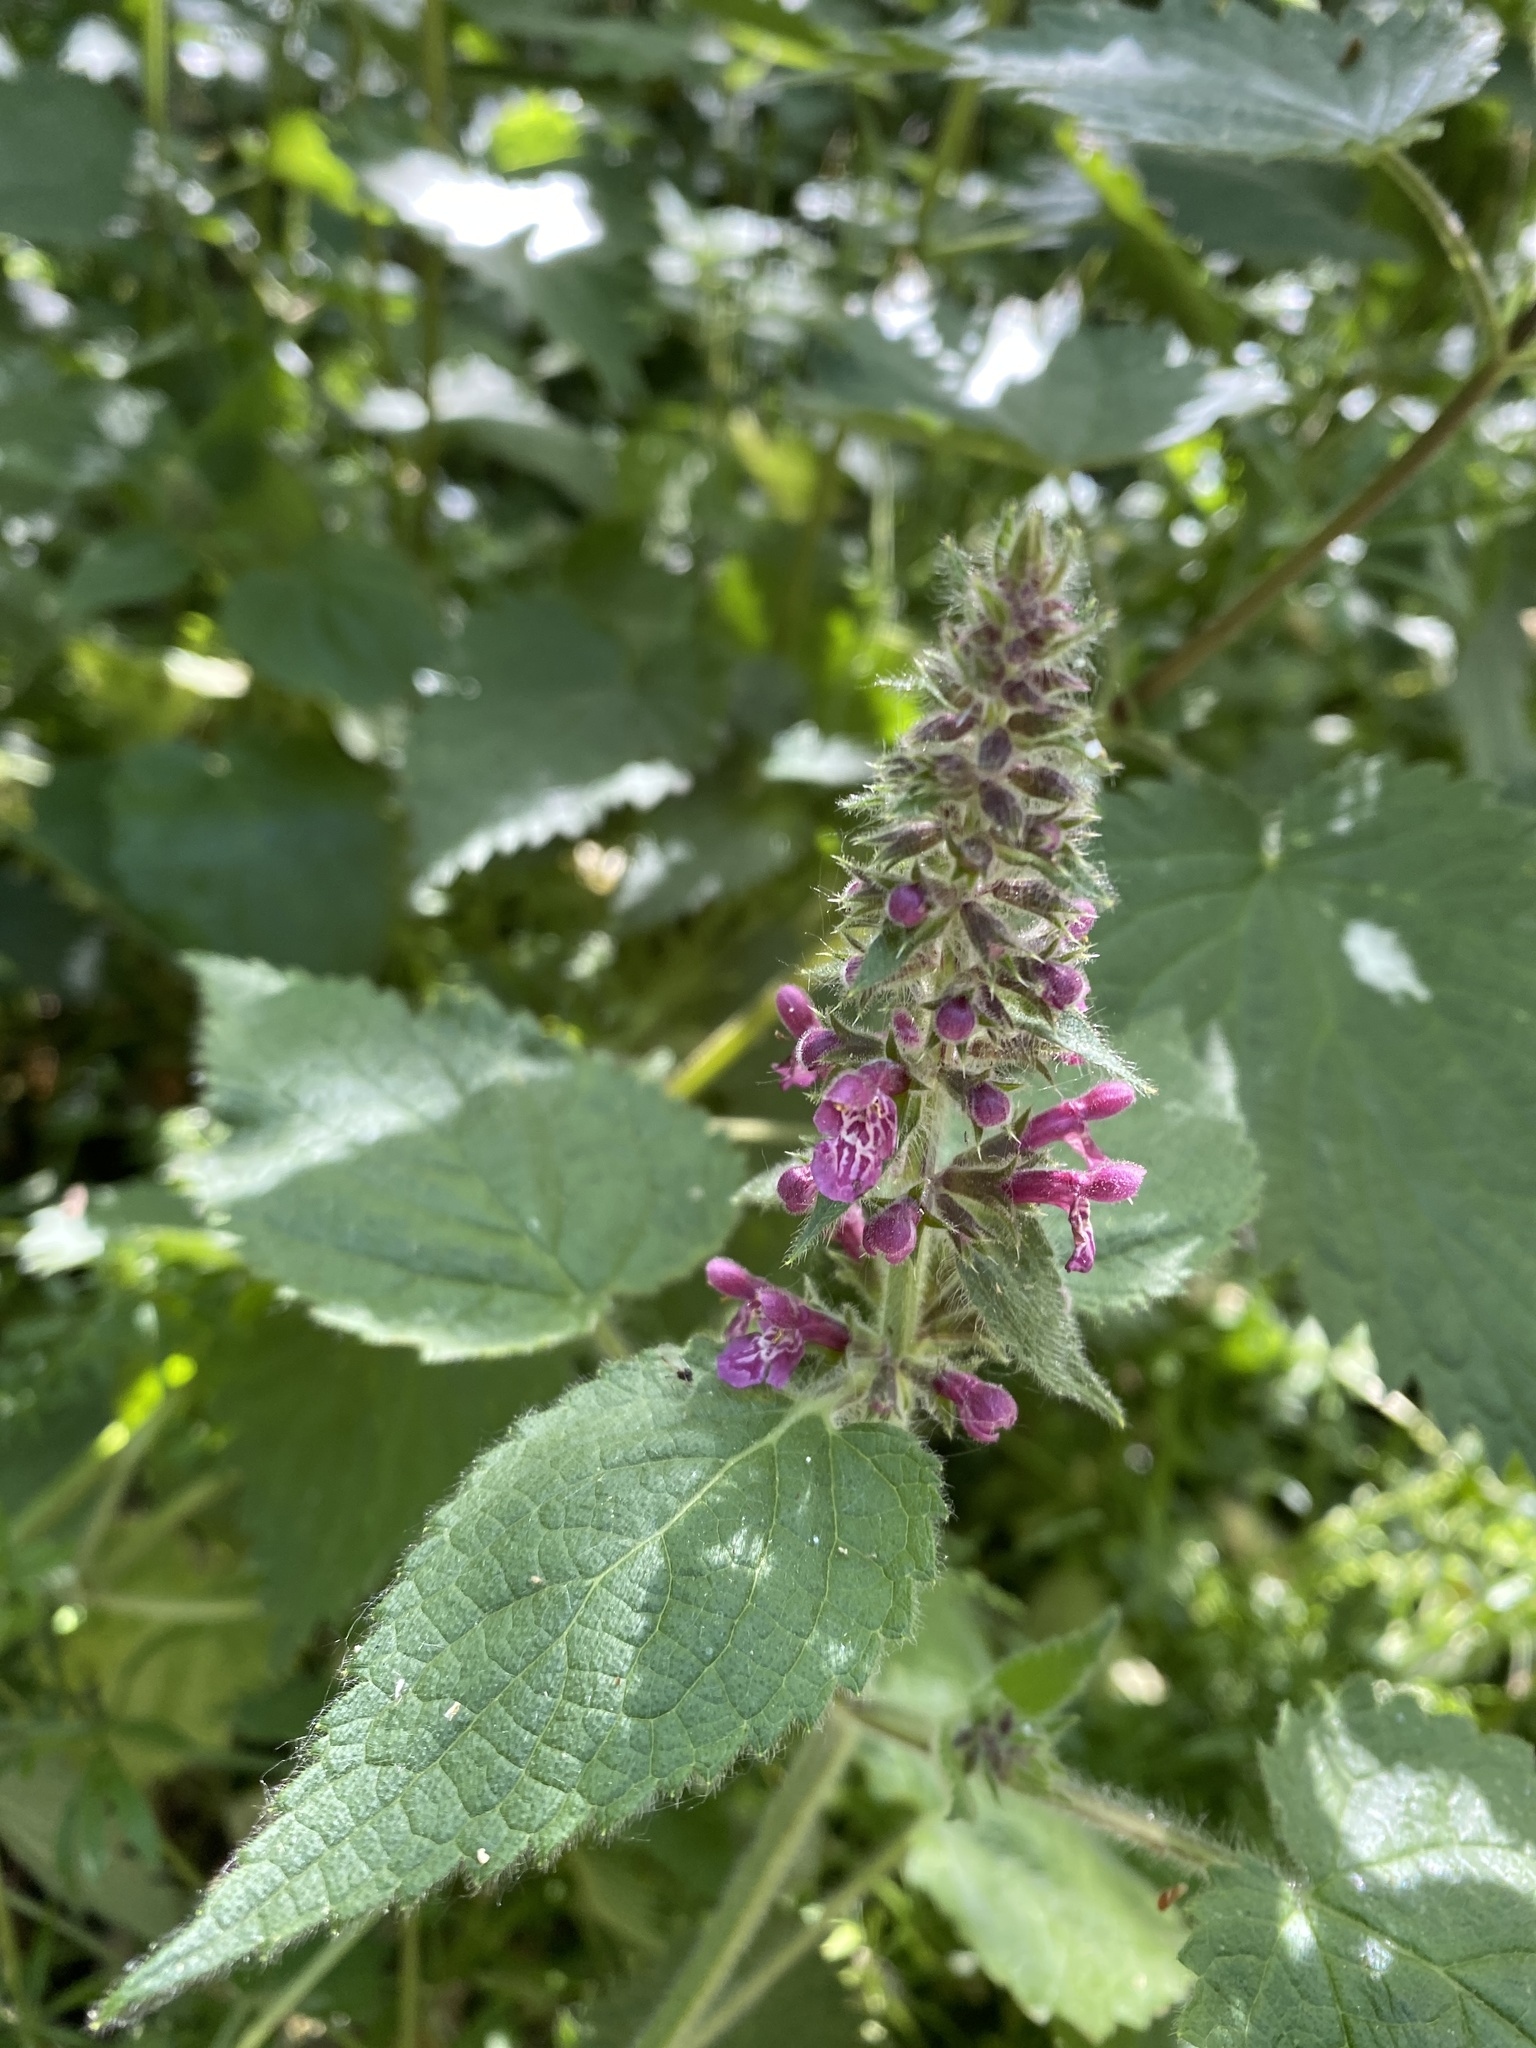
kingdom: Plantae
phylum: Tracheophyta
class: Magnoliopsida
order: Lamiales
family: Lamiaceae
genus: Stachys
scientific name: Stachys sylvatica
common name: Hedge woundwort
